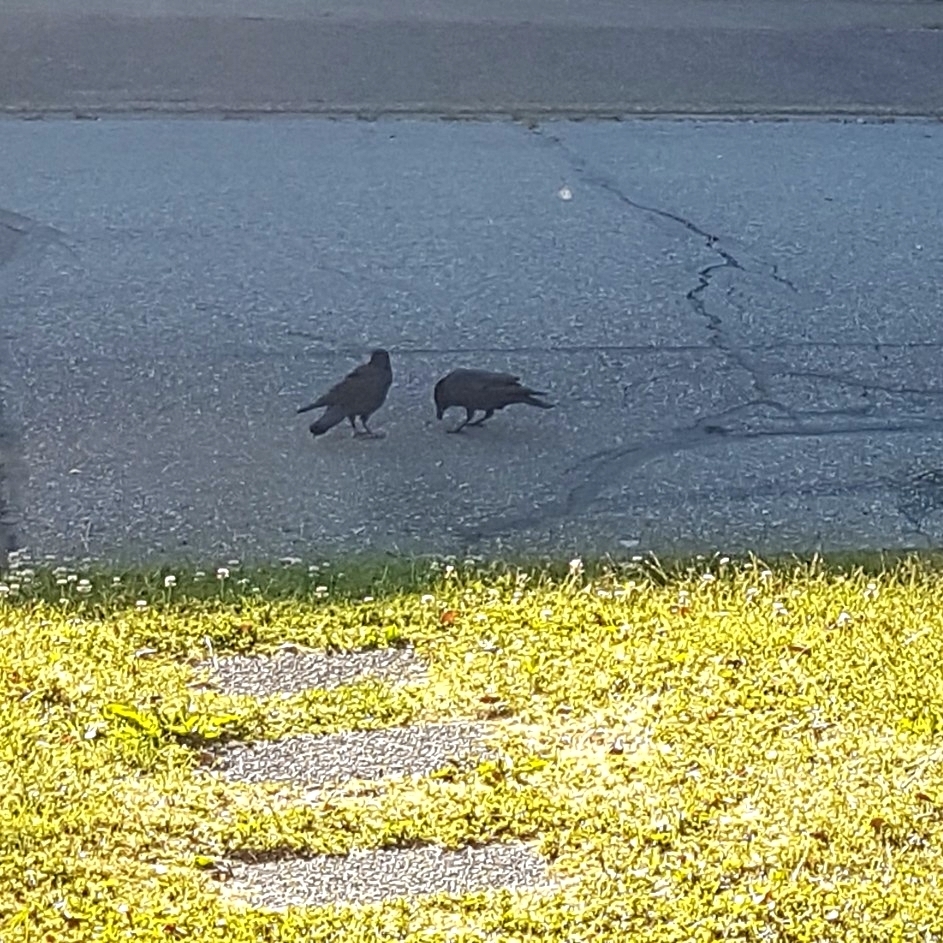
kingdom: Animalia
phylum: Chordata
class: Aves
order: Passeriformes
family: Corvidae
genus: Corvus
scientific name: Corvus brachyrhynchos
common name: American crow
